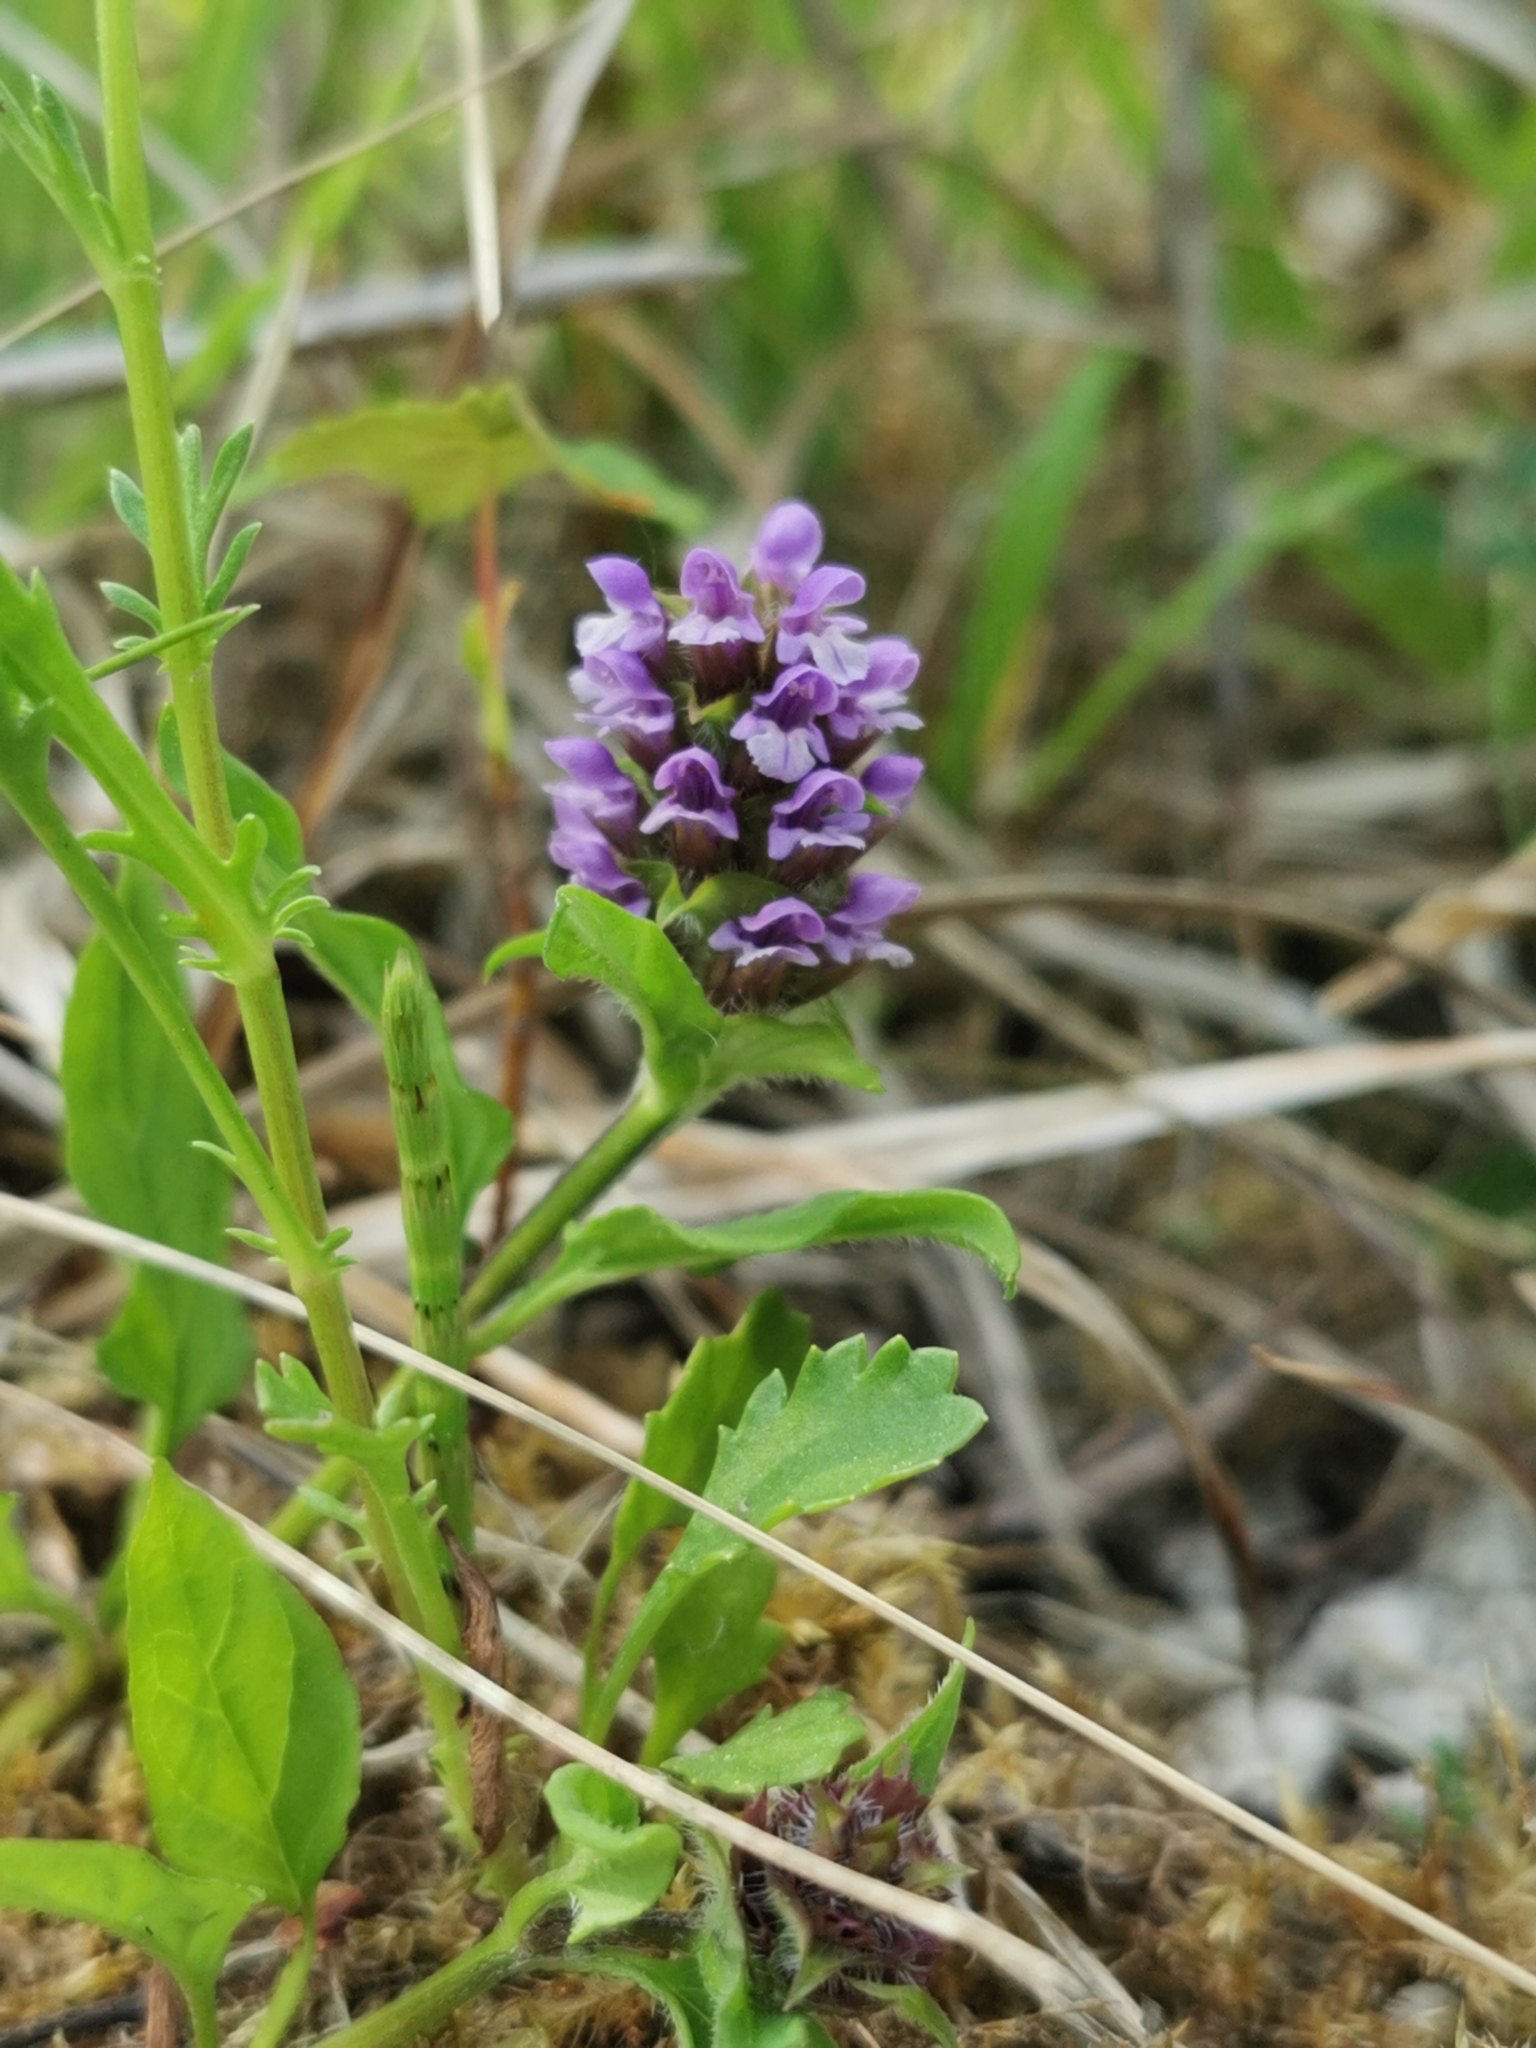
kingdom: Plantae
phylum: Tracheophyta
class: Magnoliopsida
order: Lamiales
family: Lamiaceae
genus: Prunella
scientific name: Prunella vulgaris
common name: Heal-all
